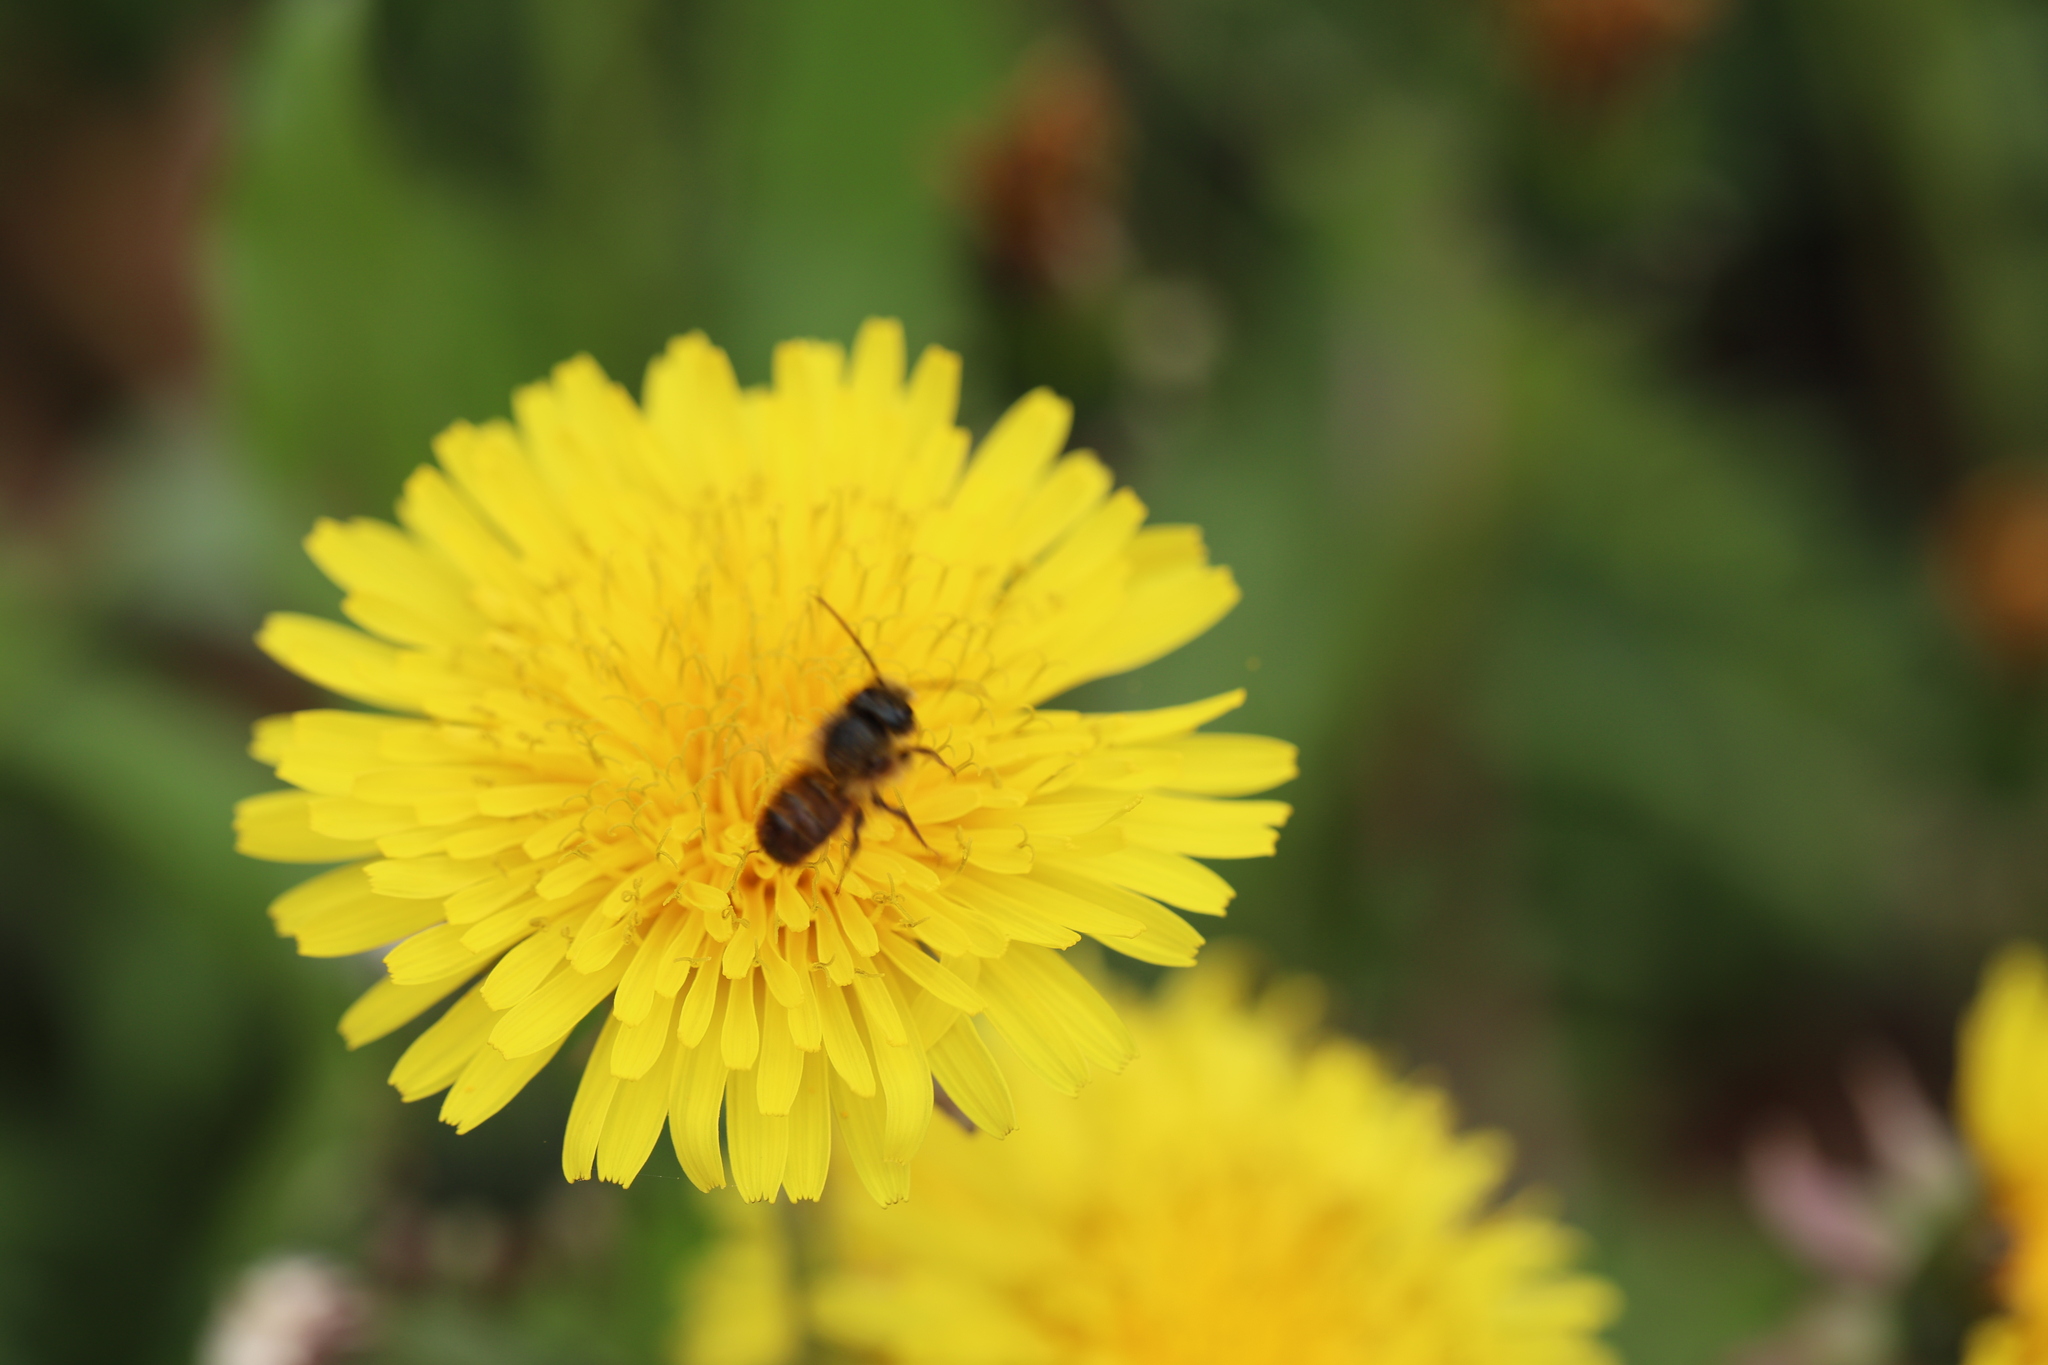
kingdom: Animalia
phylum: Arthropoda
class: Insecta
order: Hymenoptera
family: Megachilidae
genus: Osmia
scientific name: Osmia bicornis
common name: Red mason bee
